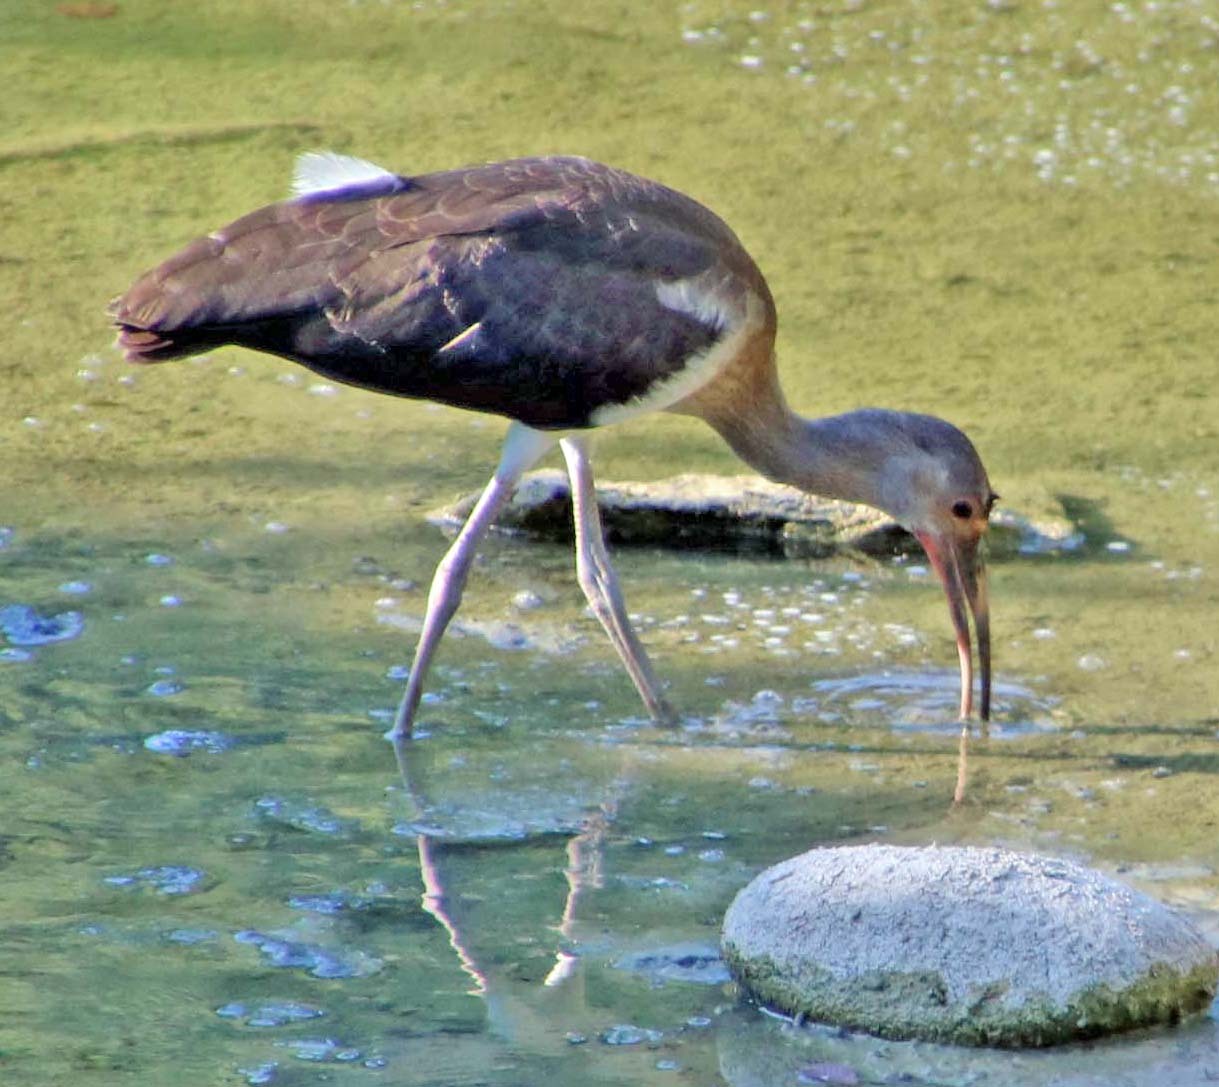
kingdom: Animalia
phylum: Chordata
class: Aves
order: Pelecaniformes
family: Threskiornithidae
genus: Eudocimus
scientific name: Eudocimus albus
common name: White ibis
